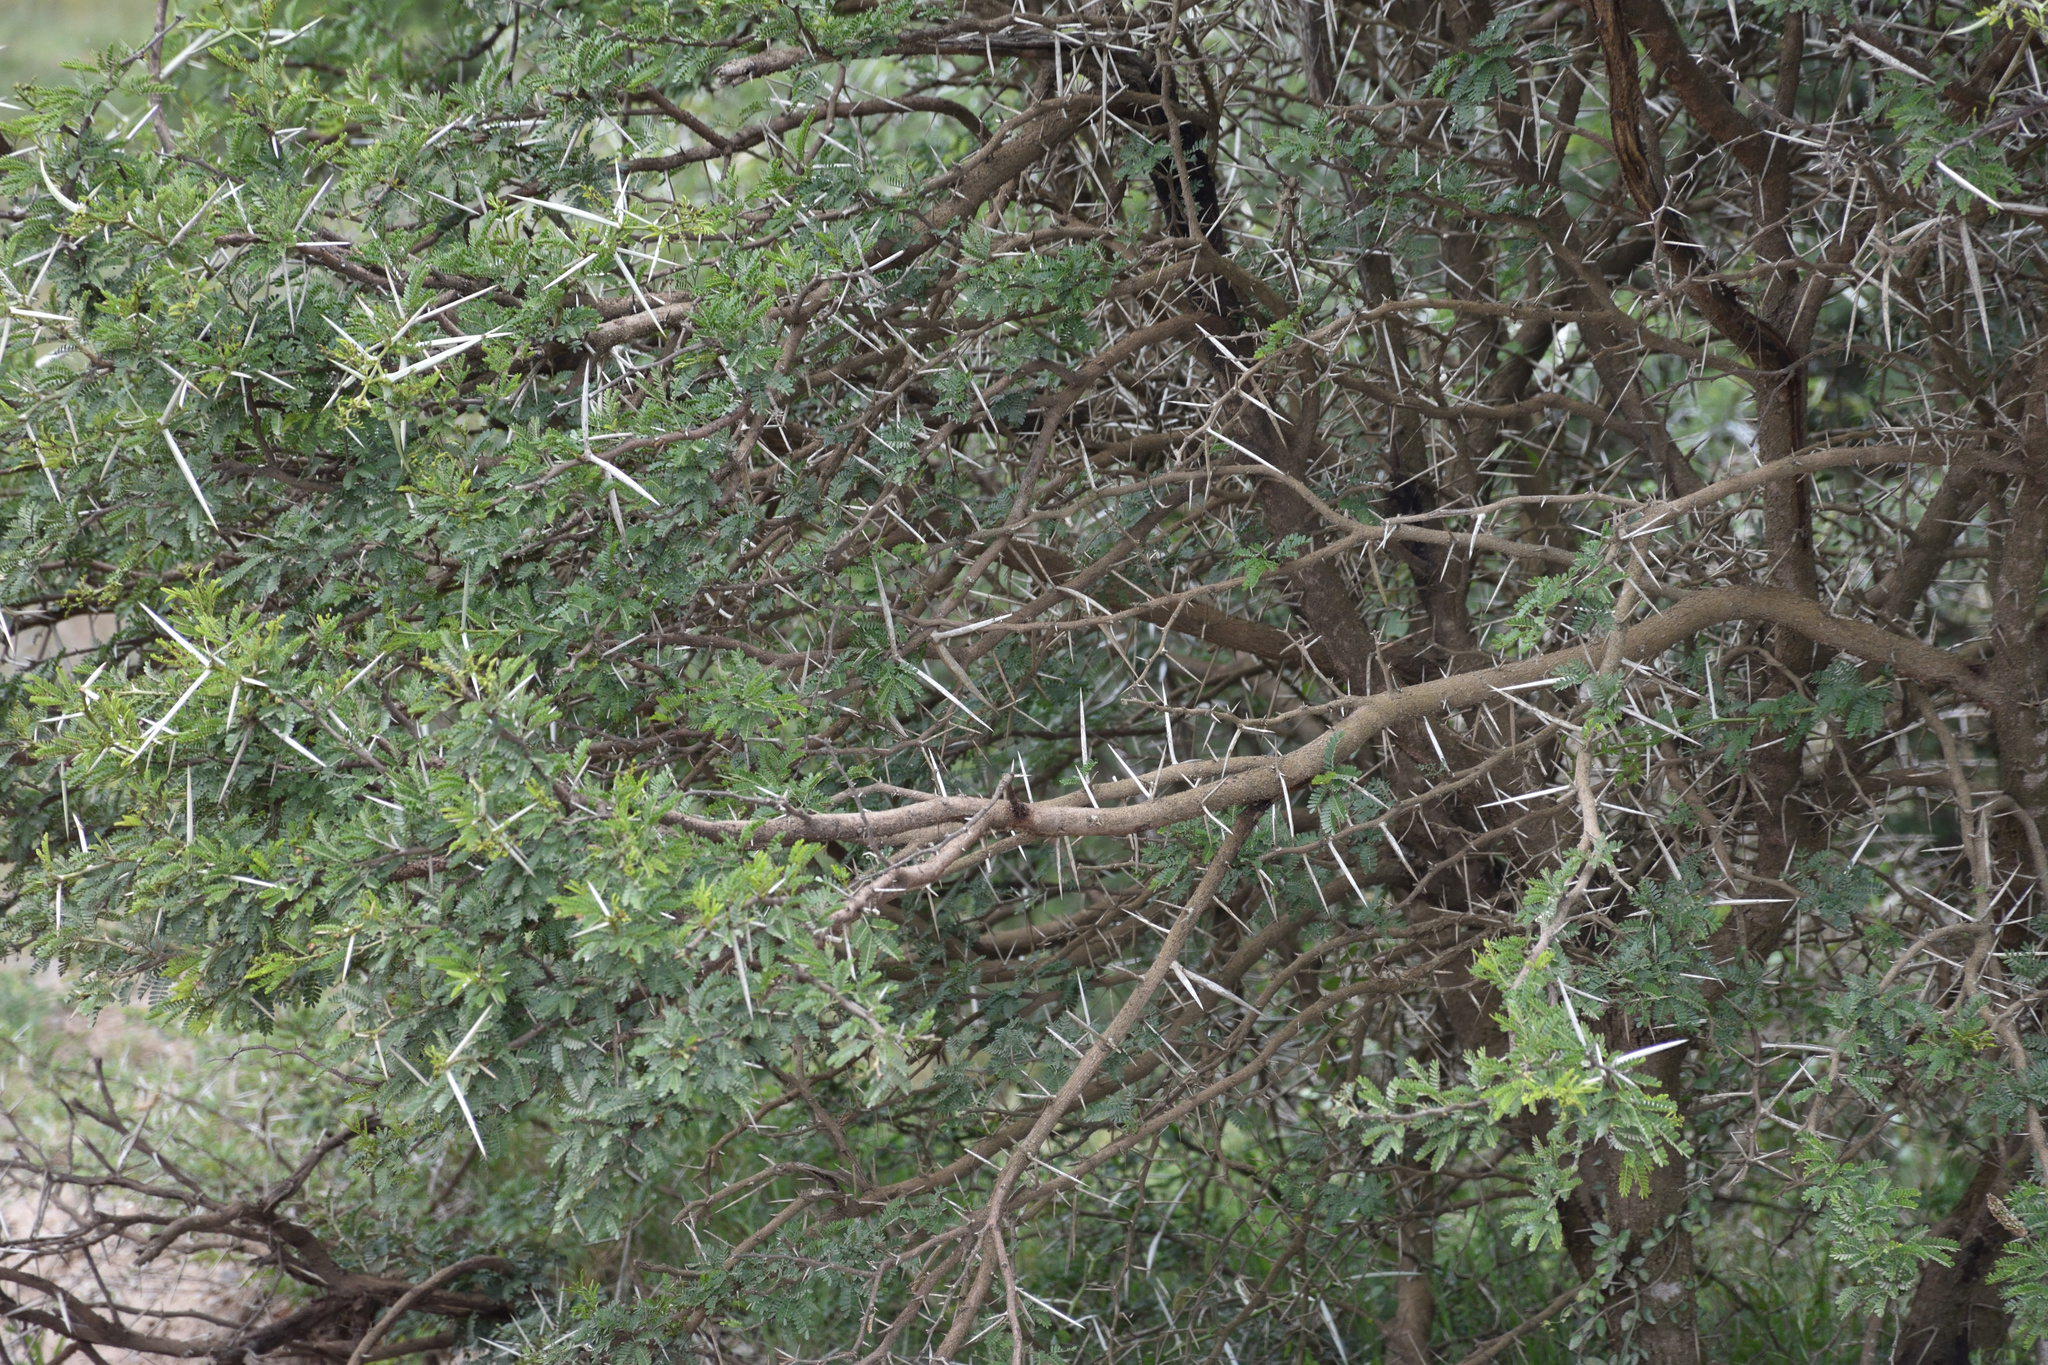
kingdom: Plantae
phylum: Tracheophyta
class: Magnoliopsida
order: Fabales
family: Fabaceae
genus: Vachellia
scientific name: Vachellia karroo
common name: Sweet thorn
